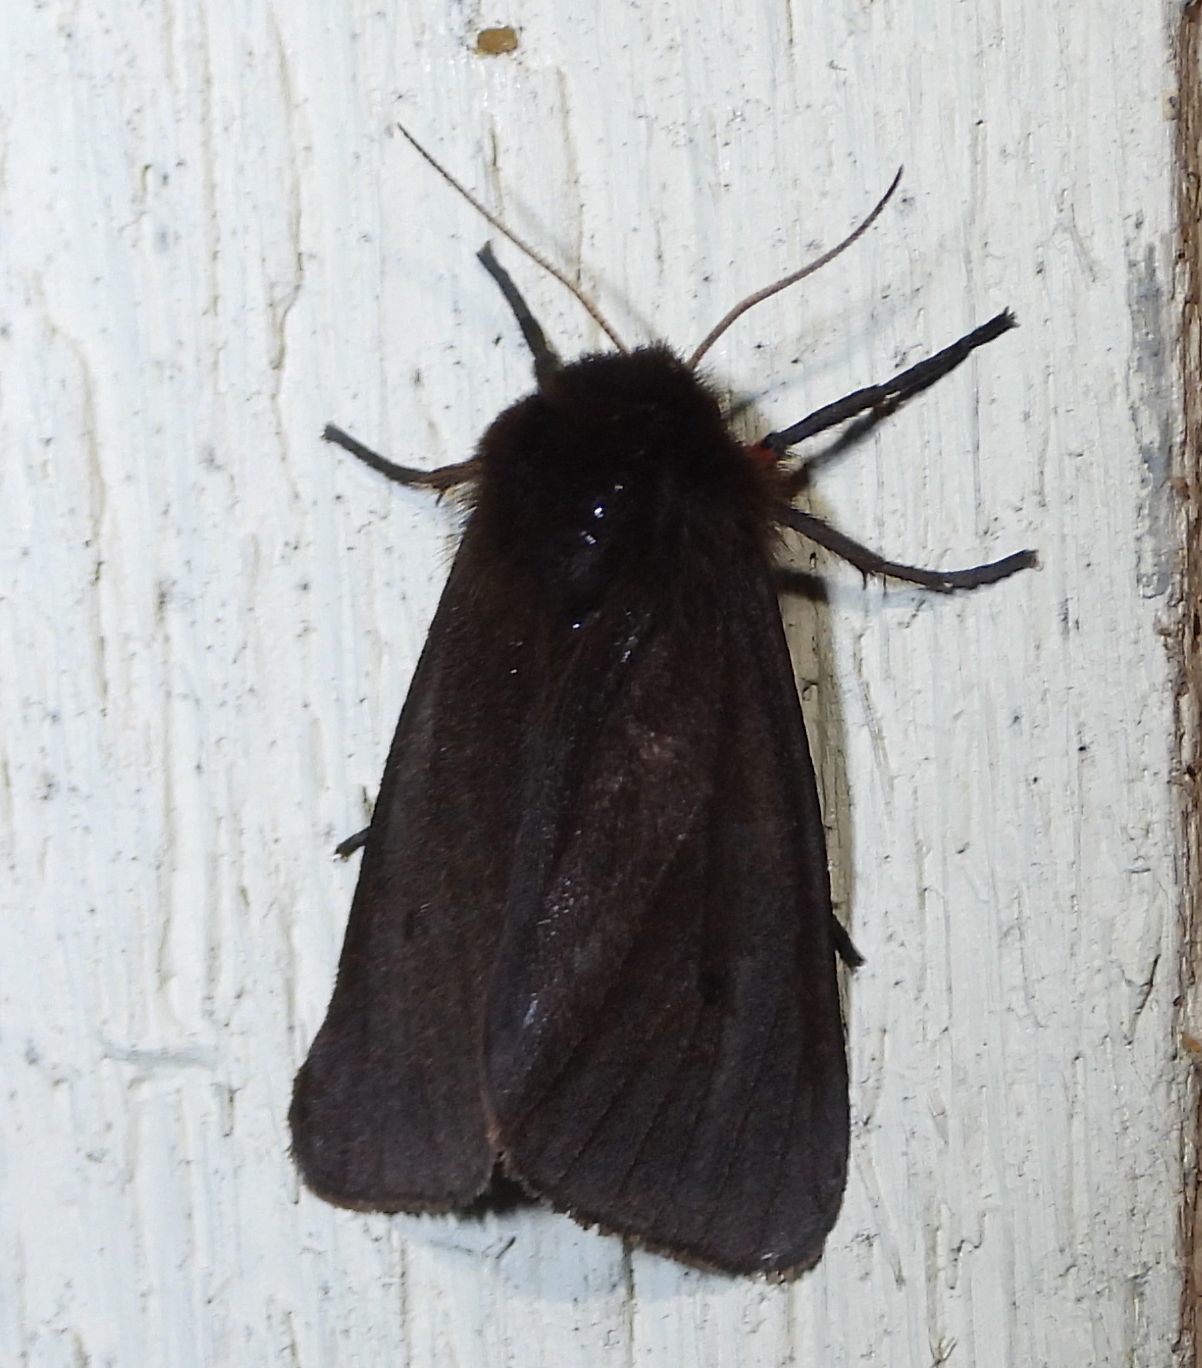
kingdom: Animalia
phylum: Arthropoda
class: Insecta
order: Lepidoptera
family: Erebidae
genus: Phragmatobia
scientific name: Phragmatobia fuliginosa
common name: Ruby tiger
